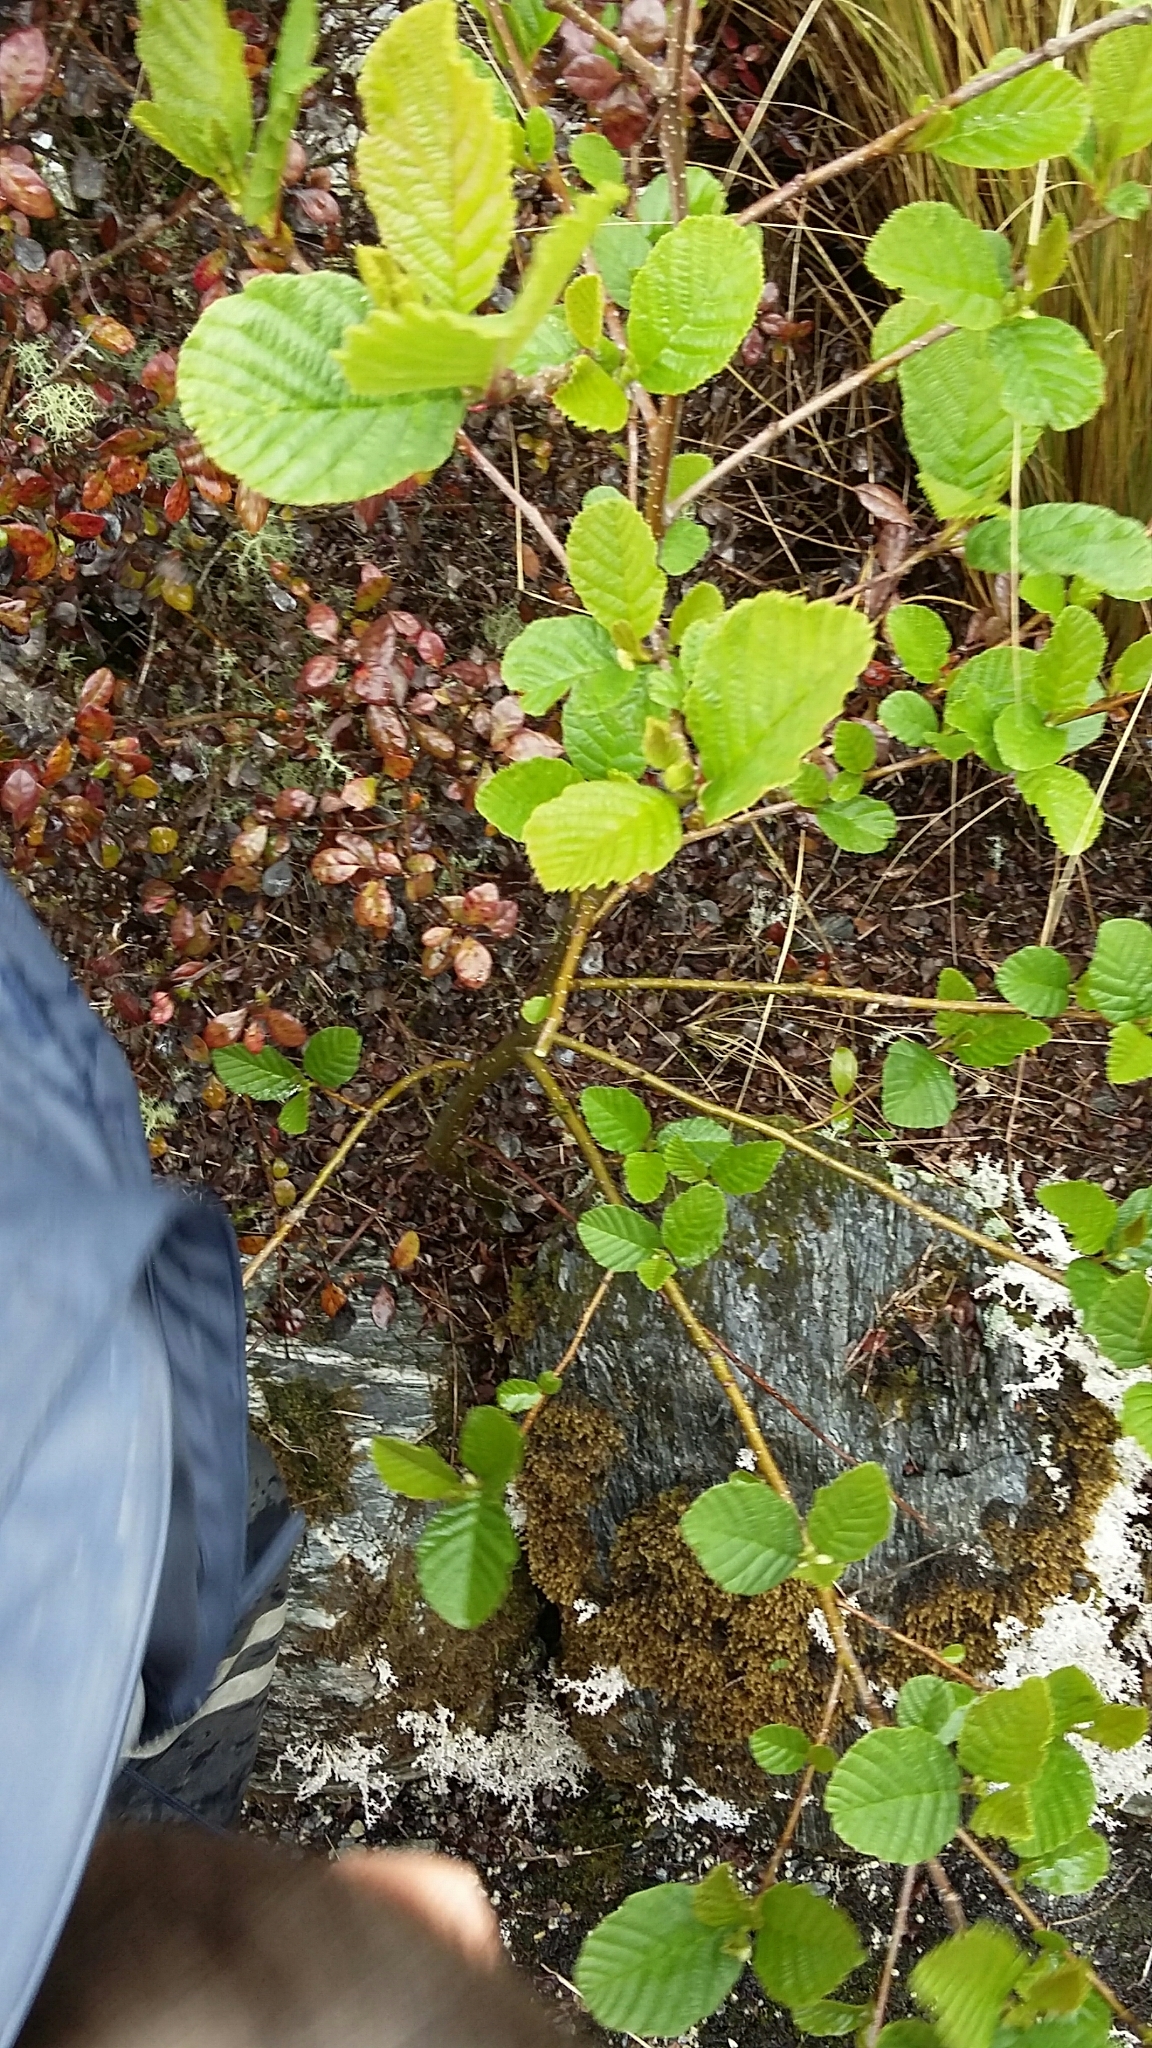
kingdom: Plantae
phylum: Tracheophyta
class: Magnoliopsida
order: Fagales
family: Betulaceae
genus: Alnus
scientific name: Alnus glutinosa
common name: Black alder
